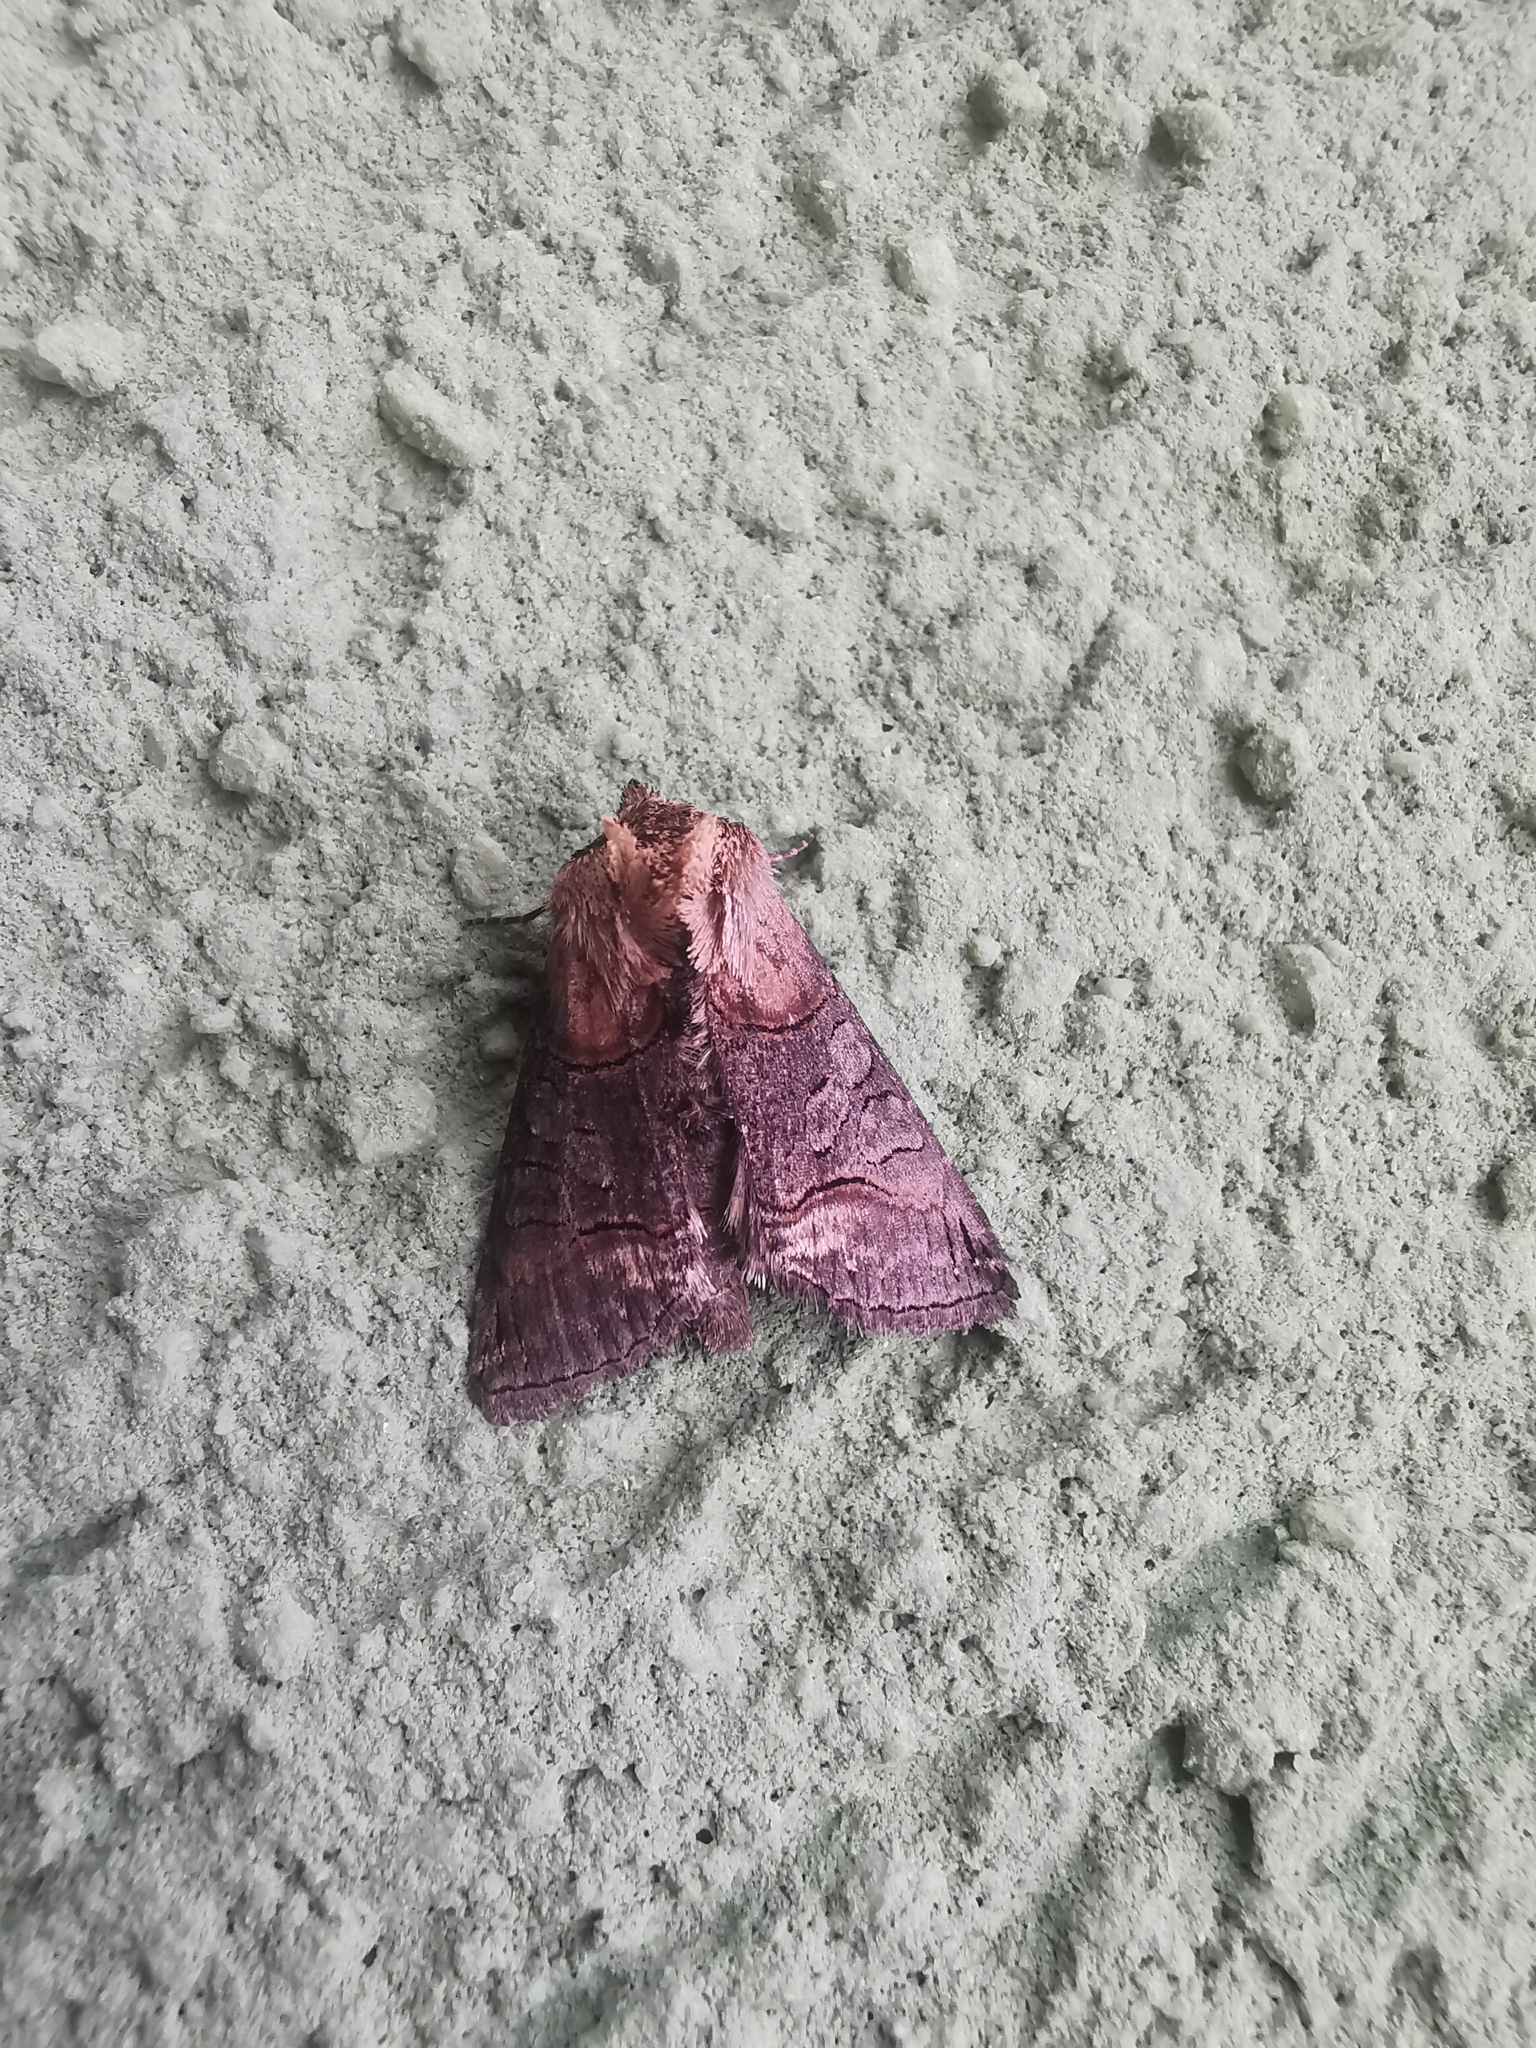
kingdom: Animalia
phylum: Arthropoda
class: Insecta
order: Lepidoptera
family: Noctuidae
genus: Abrostola
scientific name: Abrostola triplasia
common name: Dark spectacle
